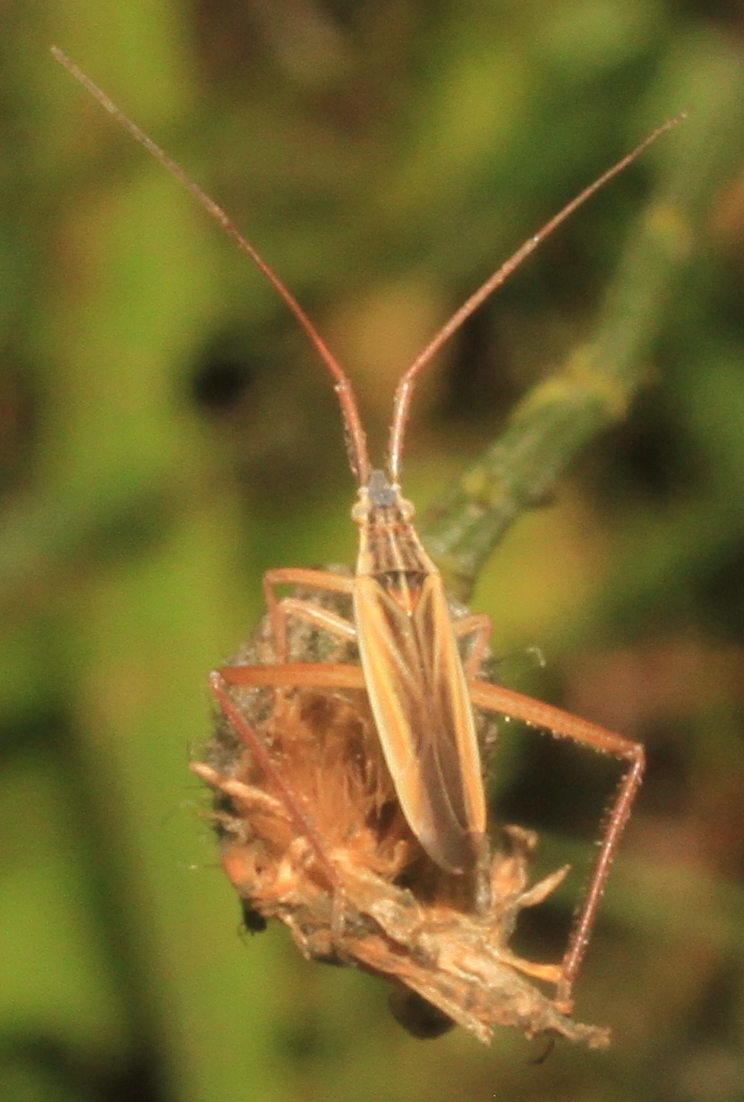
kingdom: Animalia
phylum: Arthropoda
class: Insecta
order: Hemiptera
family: Miridae
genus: Notostira
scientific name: Notostira elongata
